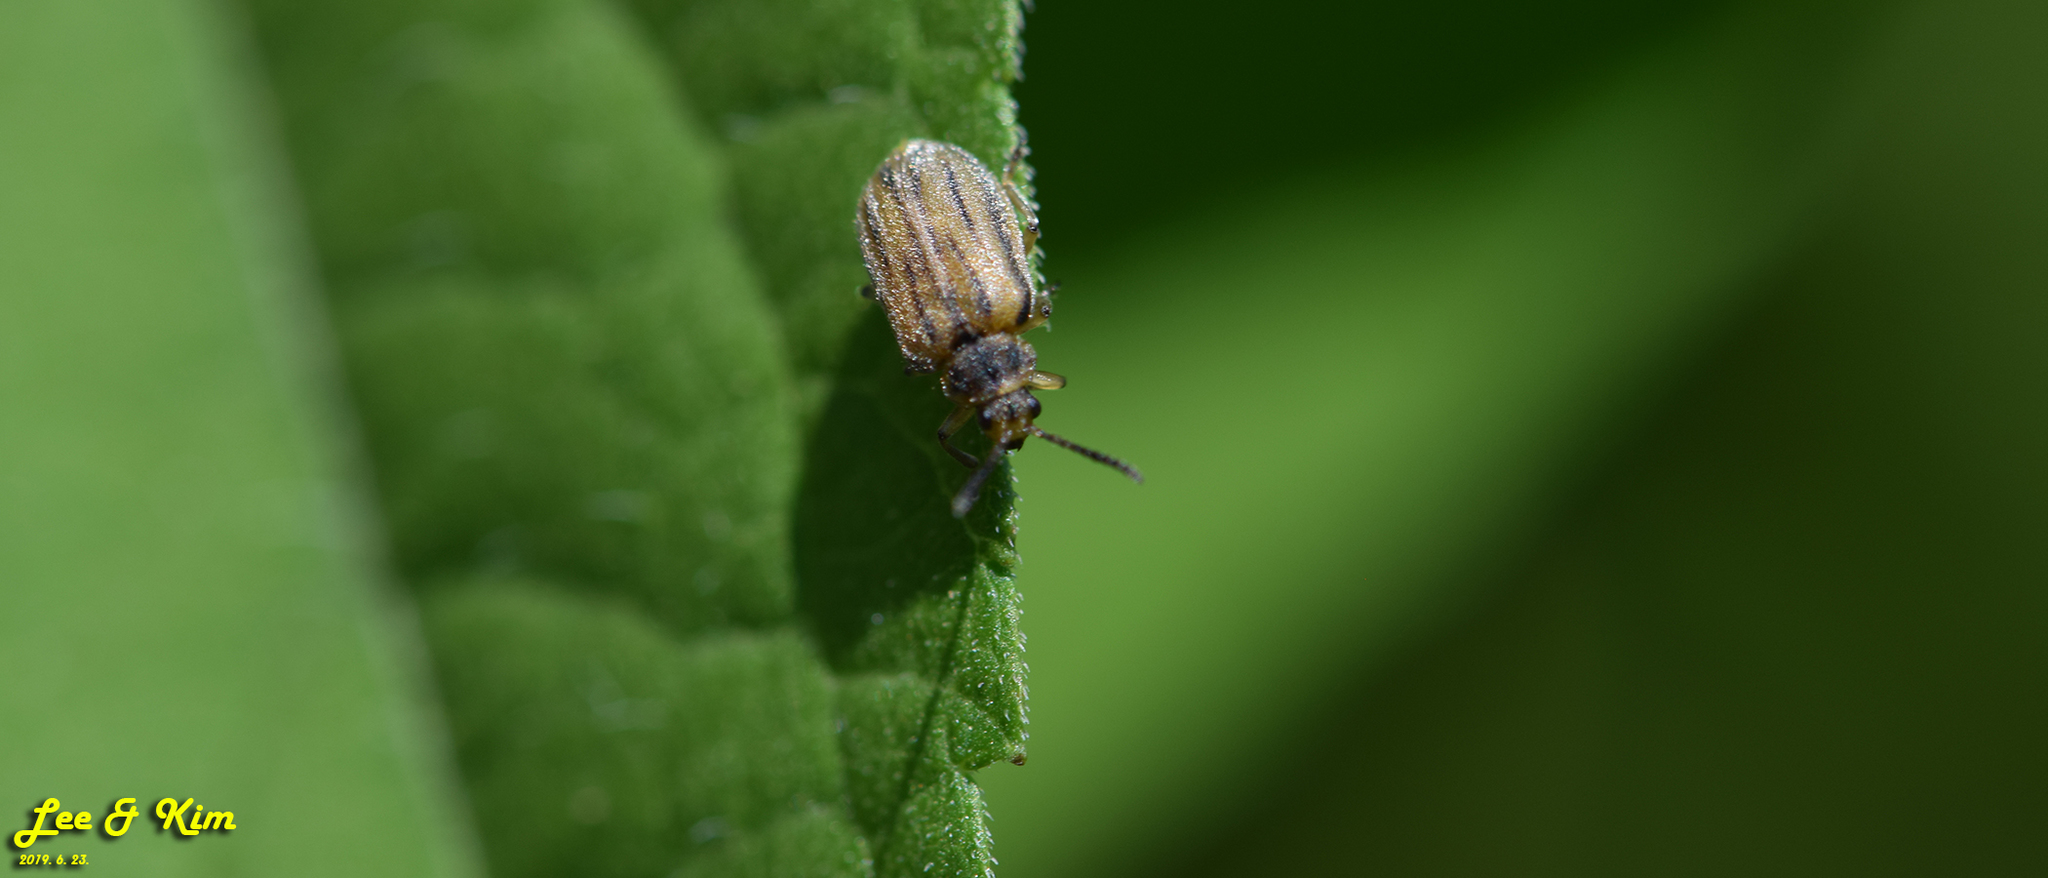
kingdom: Animalia
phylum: Arthropoda
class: Insecta
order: Coleoptera
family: Chrysomelidae
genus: Ophraella
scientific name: Ophraella communa
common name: Ragweed leaf beetle
